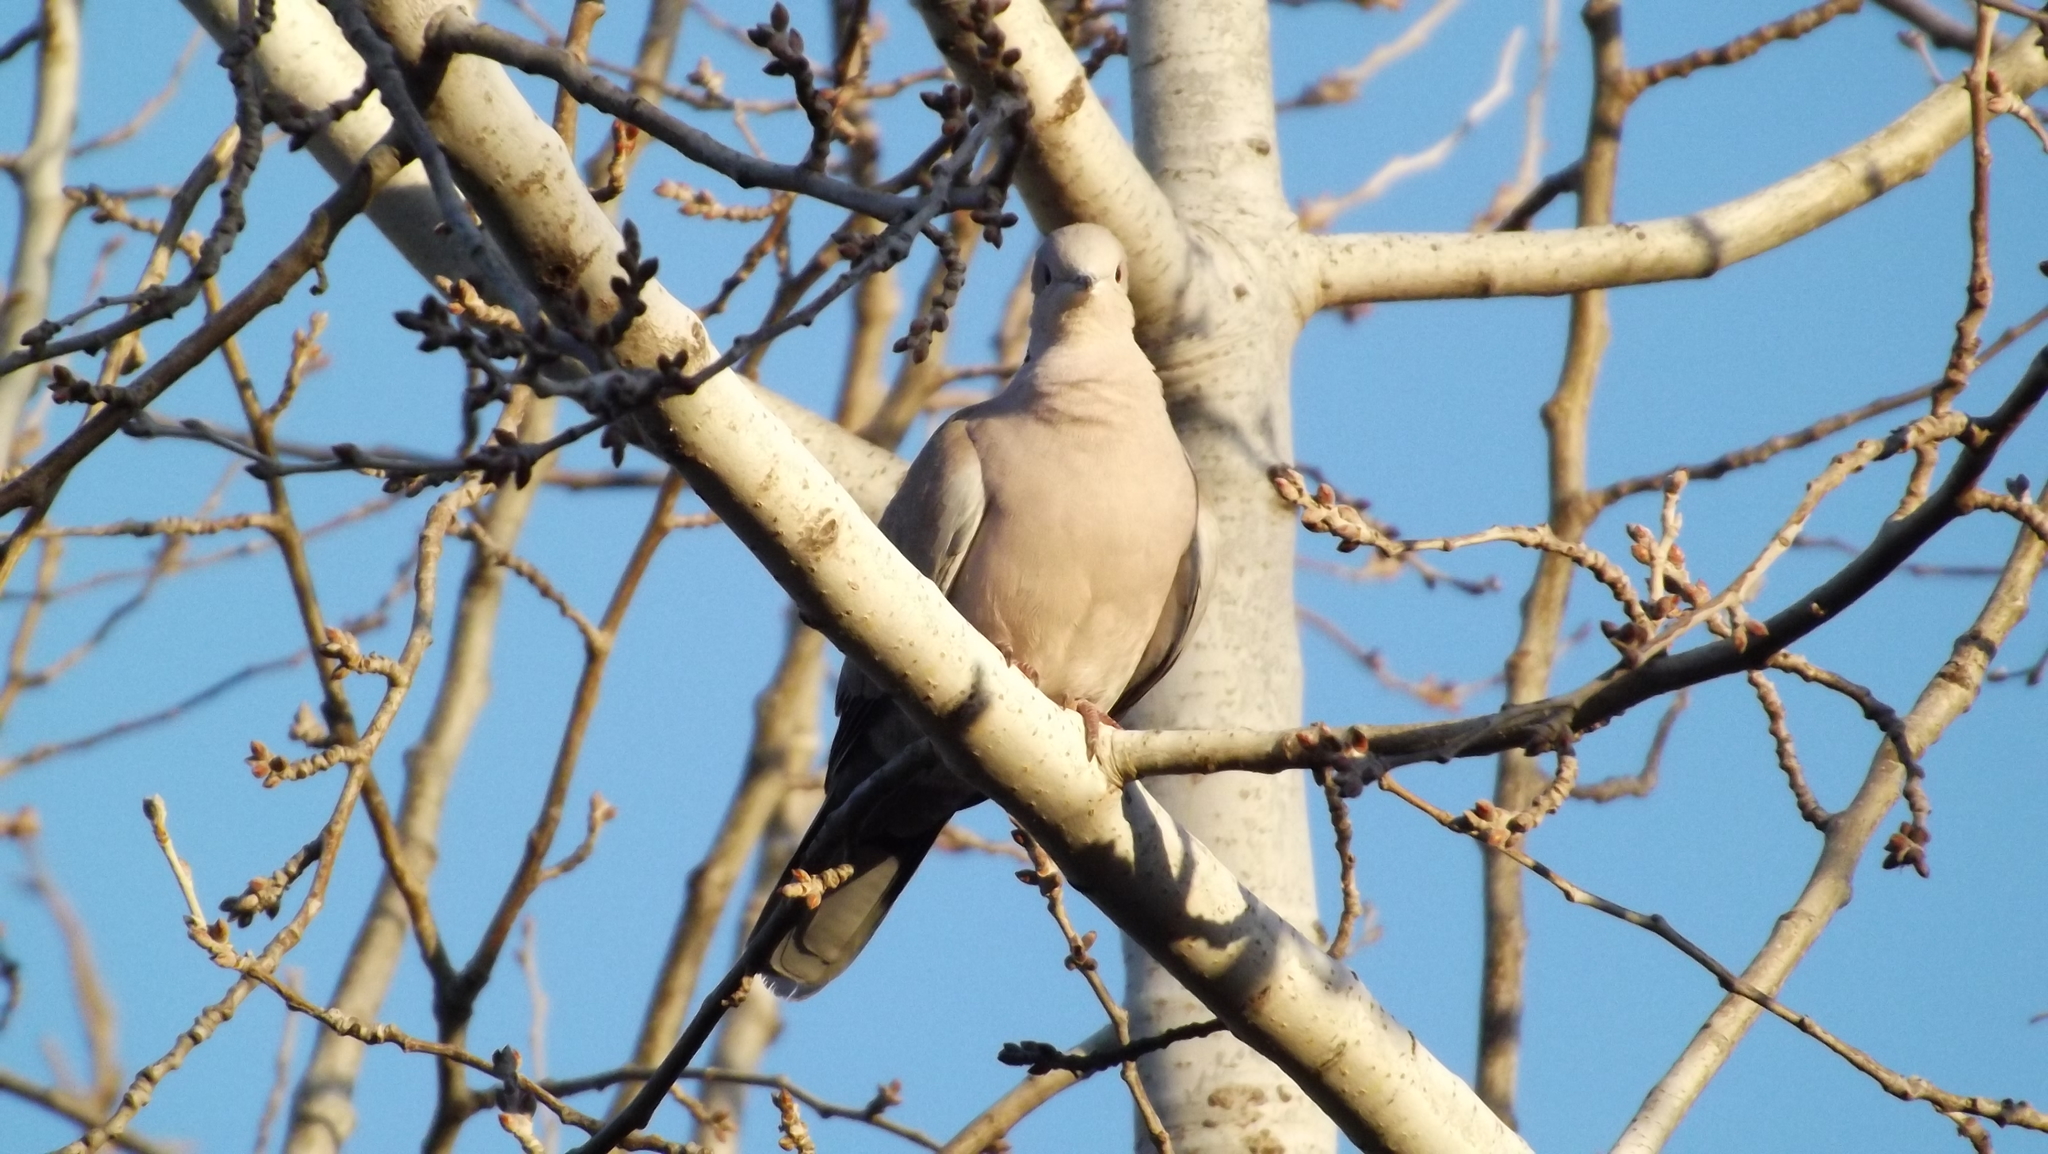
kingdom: Animalia
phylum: Chordata
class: Aves
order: Columbiformes
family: Columbidae
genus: Streptopelia
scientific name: Streptopelia decaocto
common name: Eurasian collared dove
